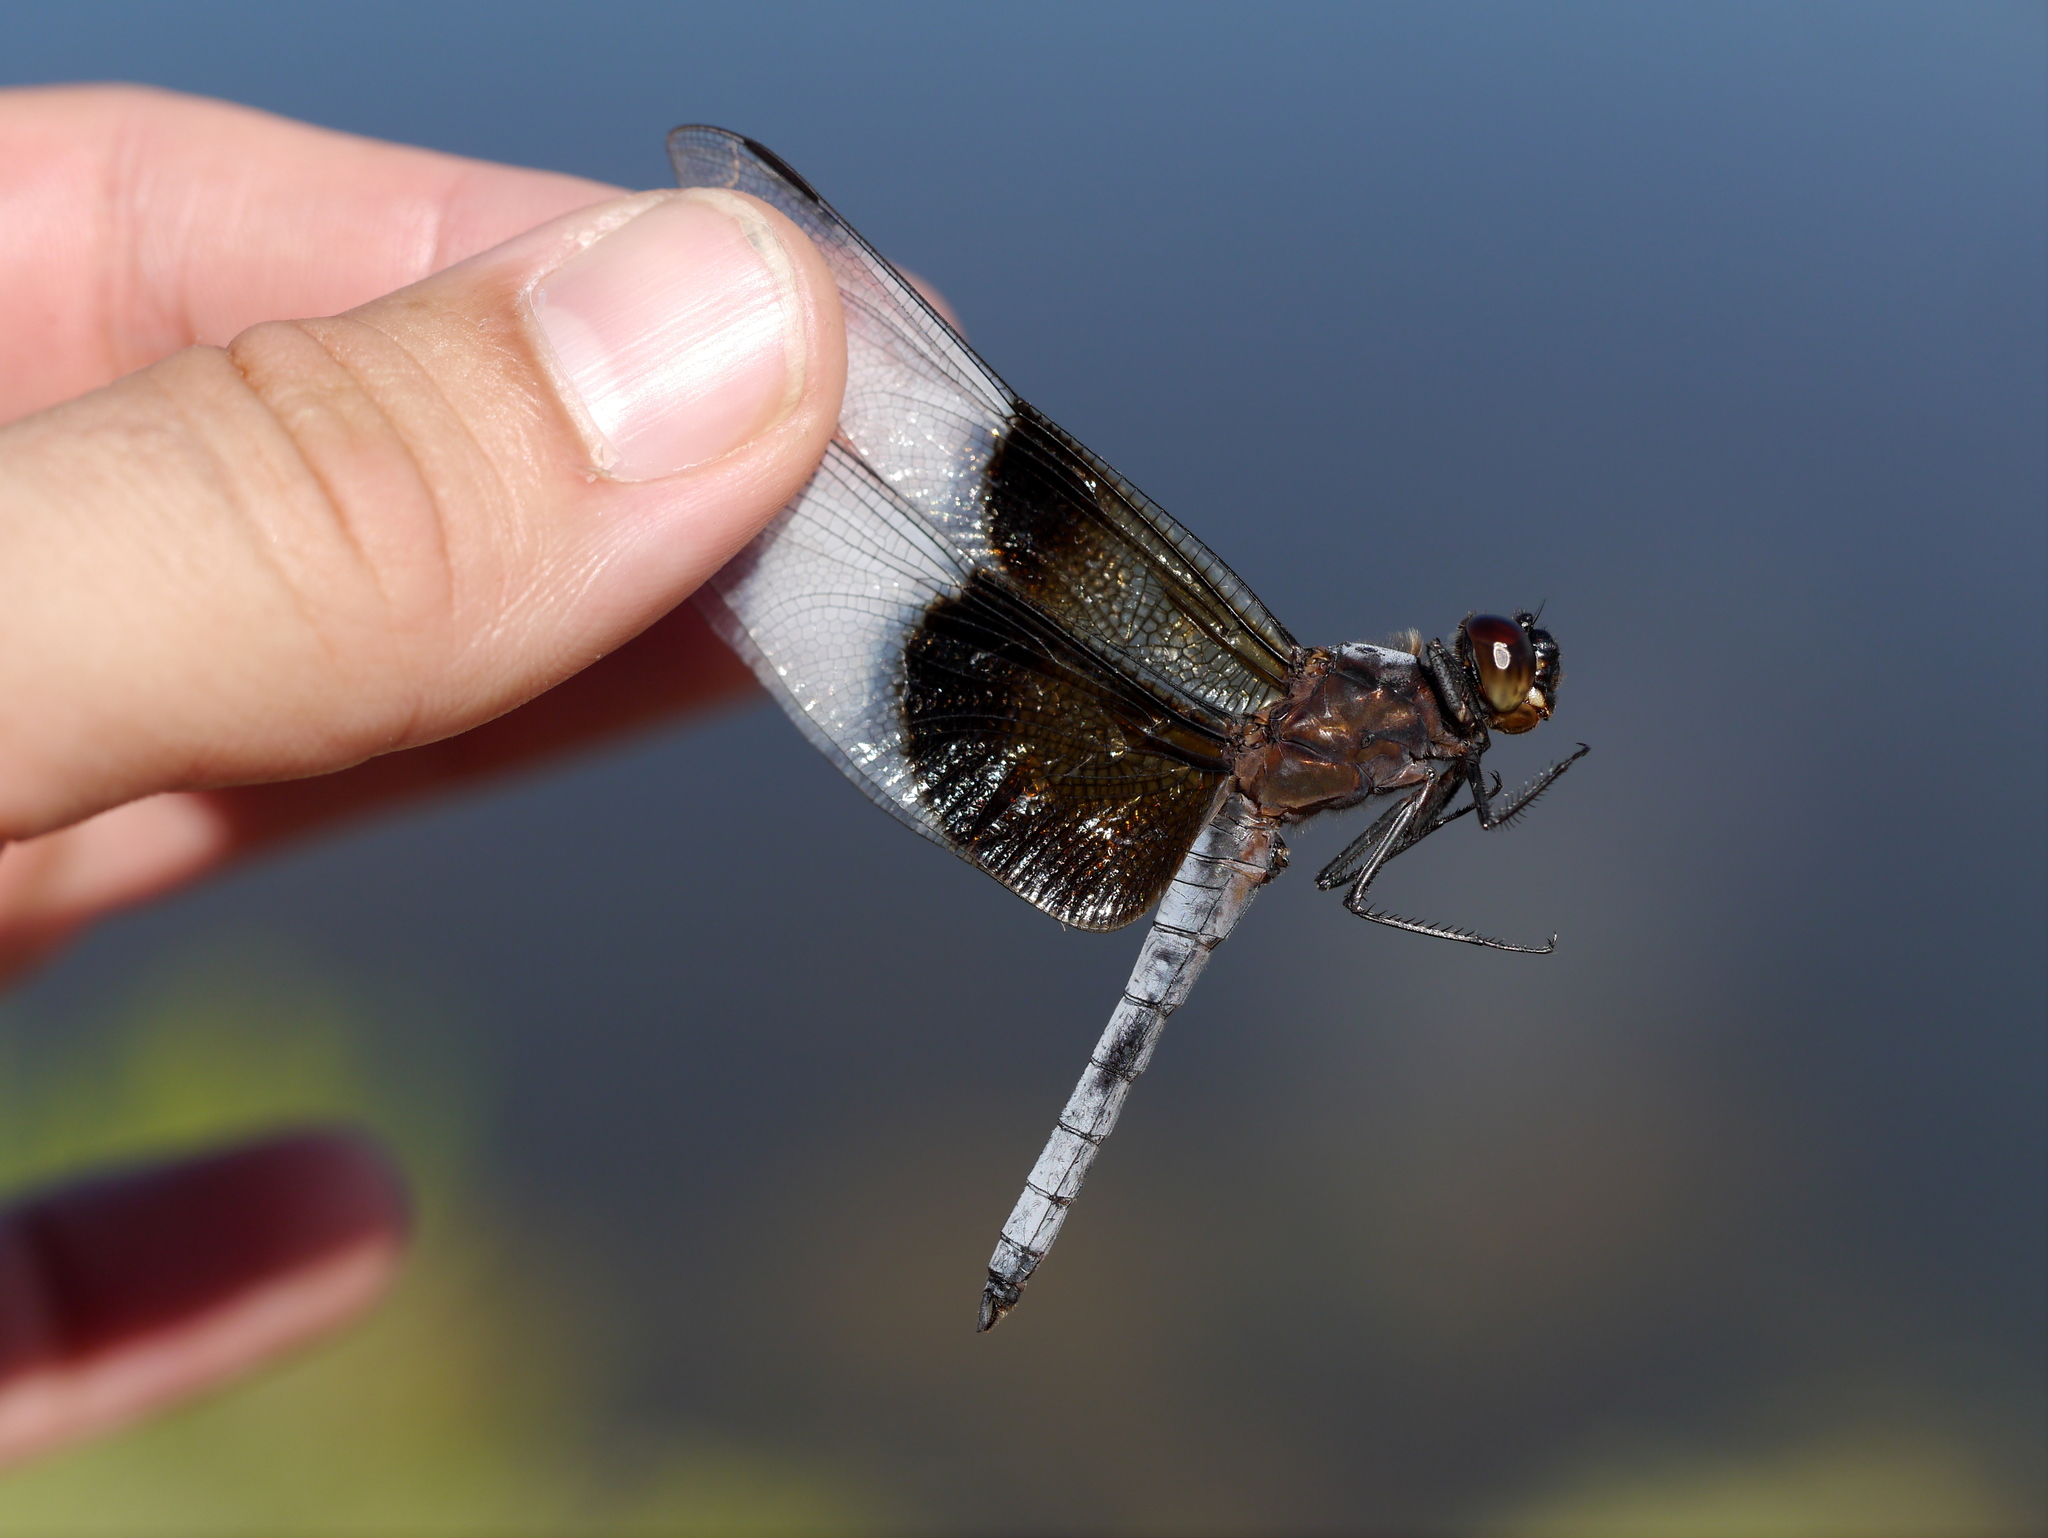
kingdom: Animalia
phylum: Arthropoda
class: Insecta
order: Odonata
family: Libellulidae
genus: Libellula
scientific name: Libellula luctuosa
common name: Widow skimmer
